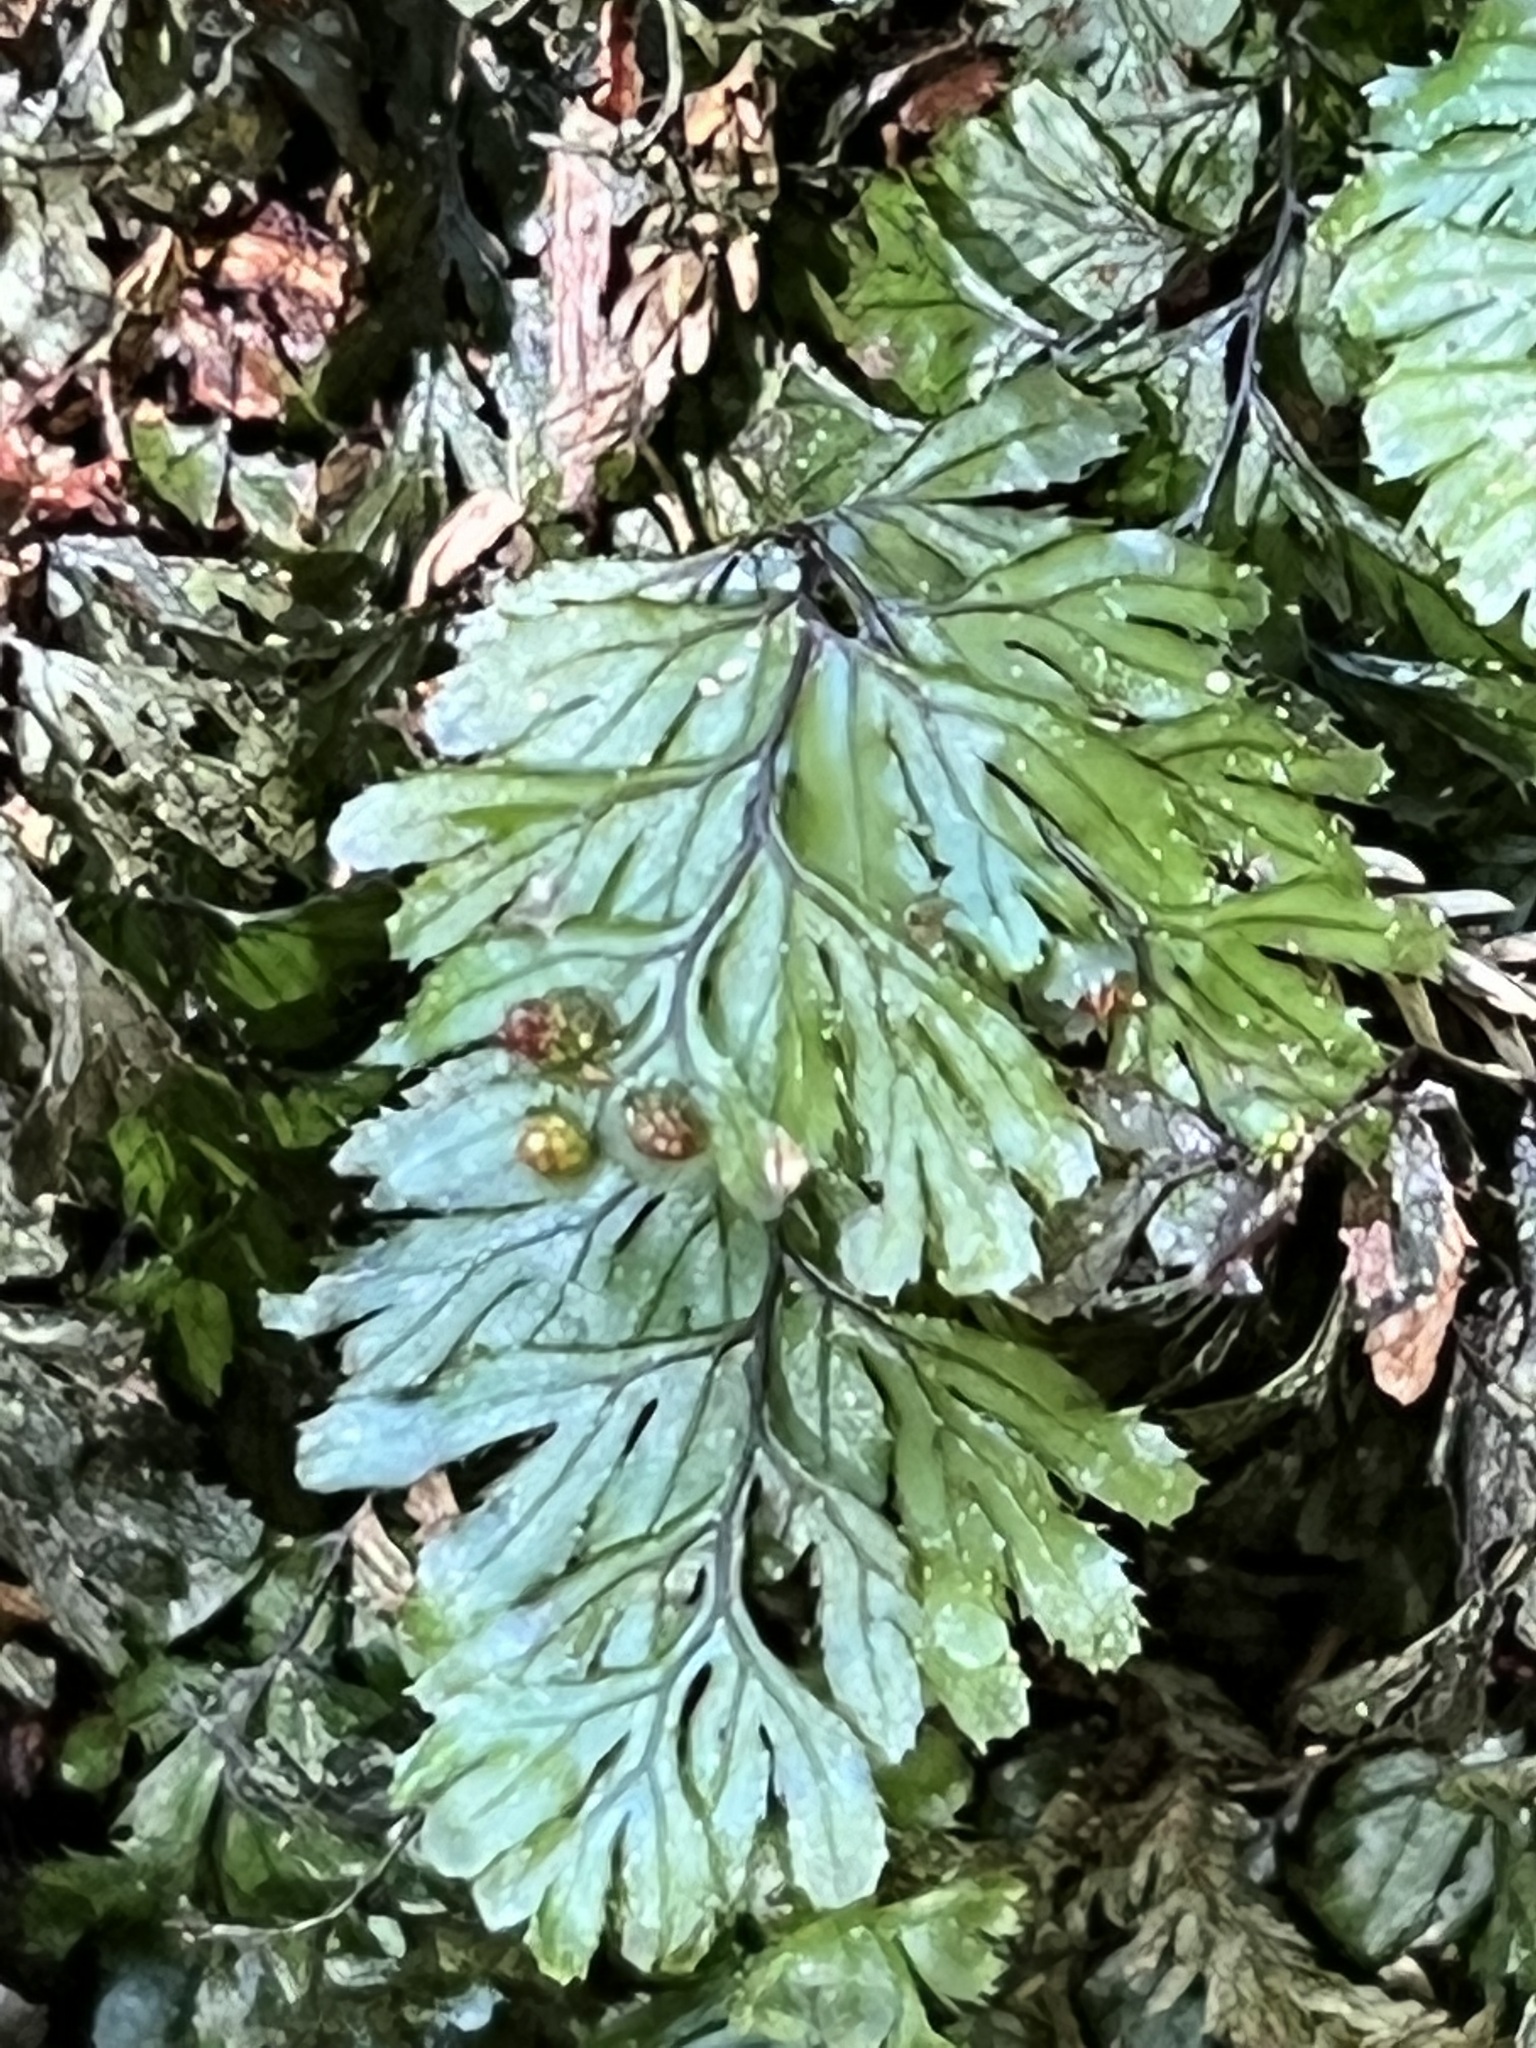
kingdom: Plantae
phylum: Tracheophyta
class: Polypodiopsida
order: Hymenophyllales
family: Hymenophyllaceae
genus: Hymenophyllum
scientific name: Hymenophyllum revolutum
